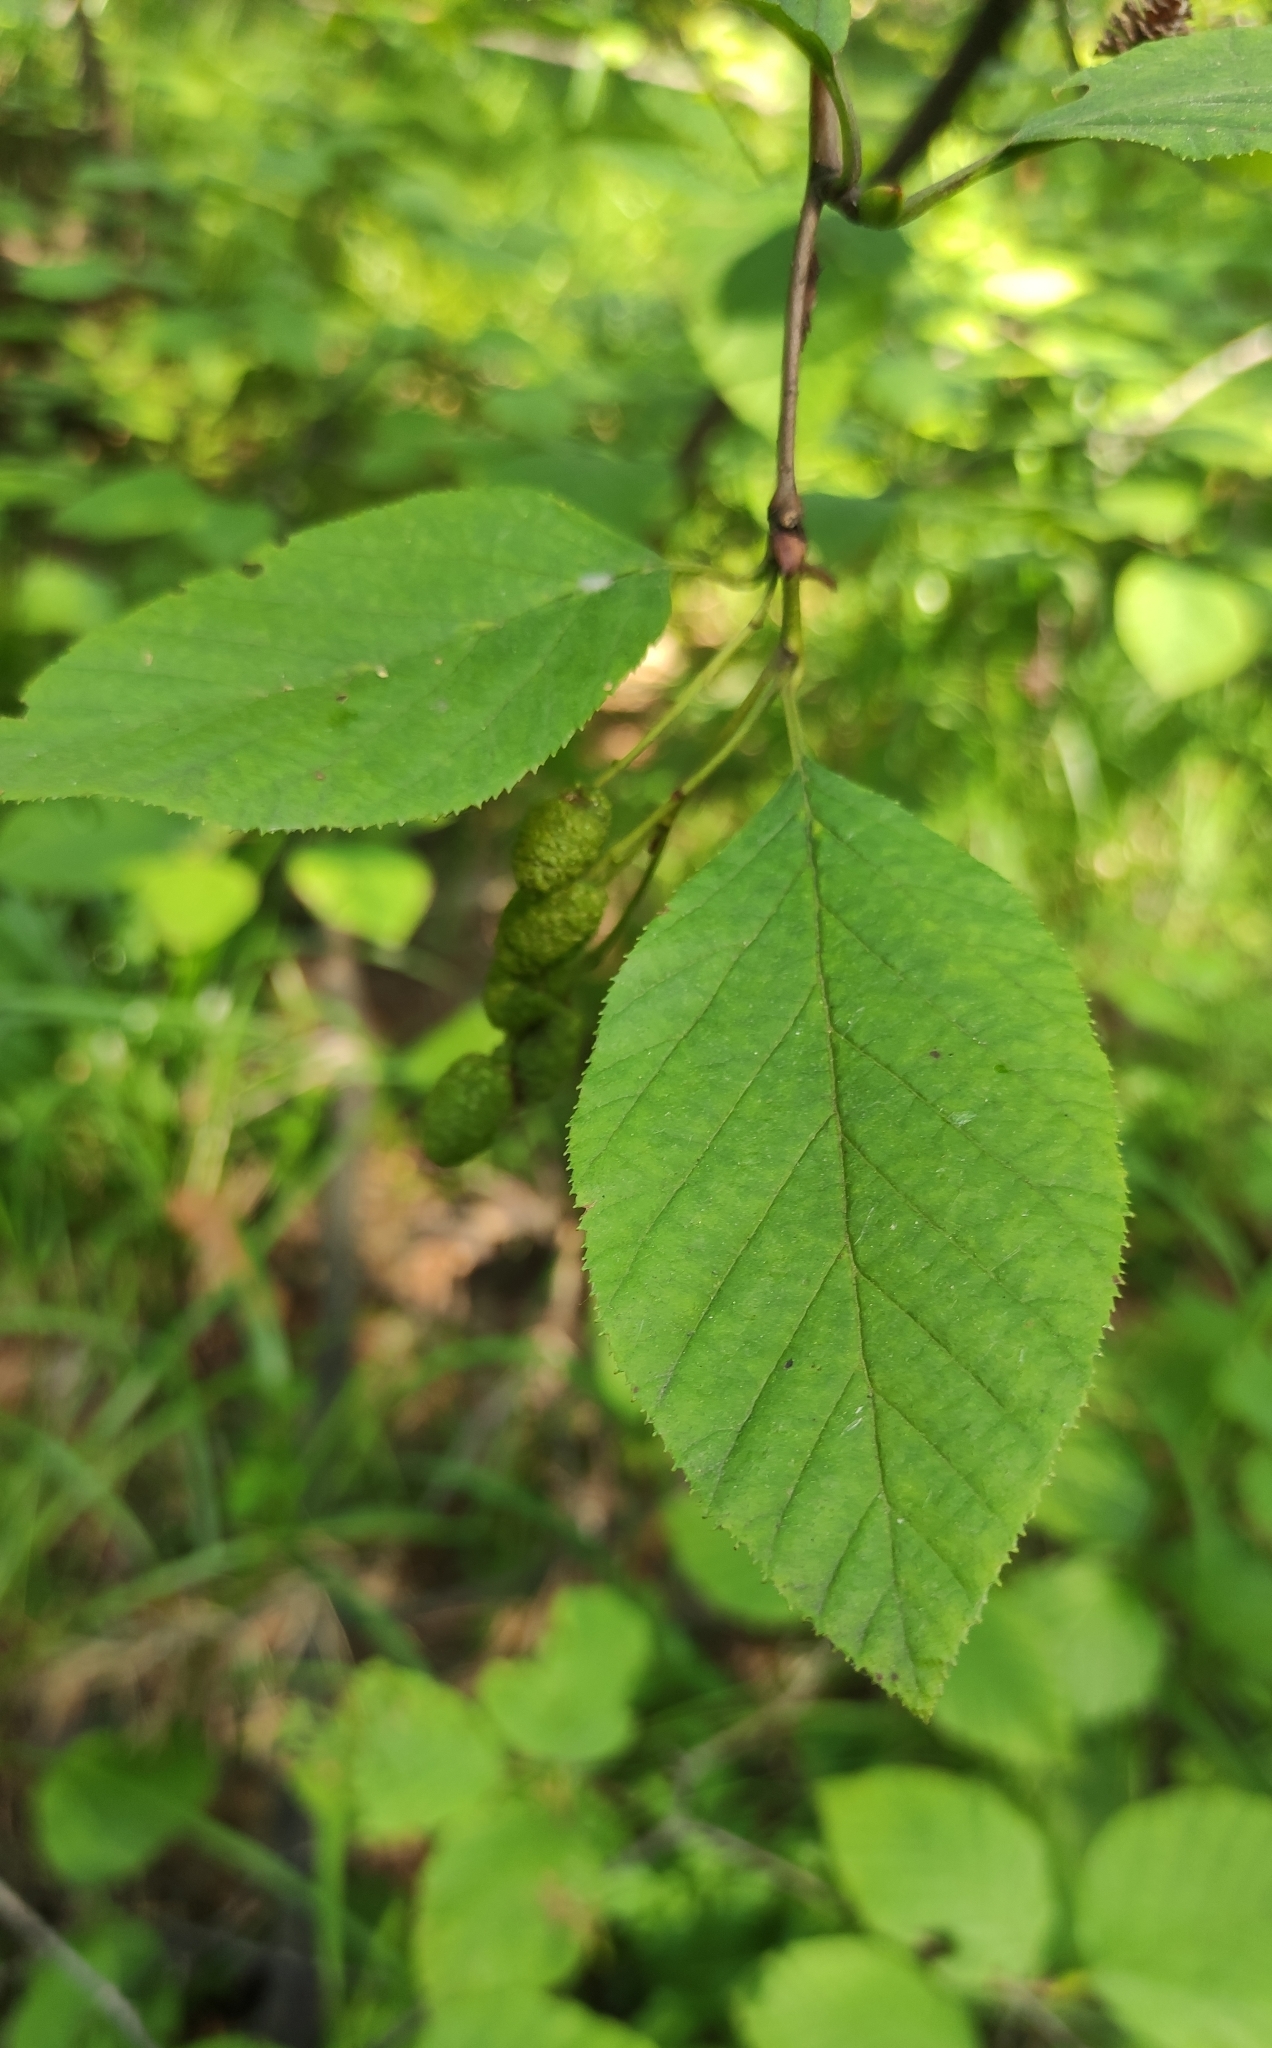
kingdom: Plantae
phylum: Tracheophyta
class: Magnoliopsida
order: Fagales
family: Betulaceae
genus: Alnus
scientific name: Alnus alnobetula
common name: Green alder
